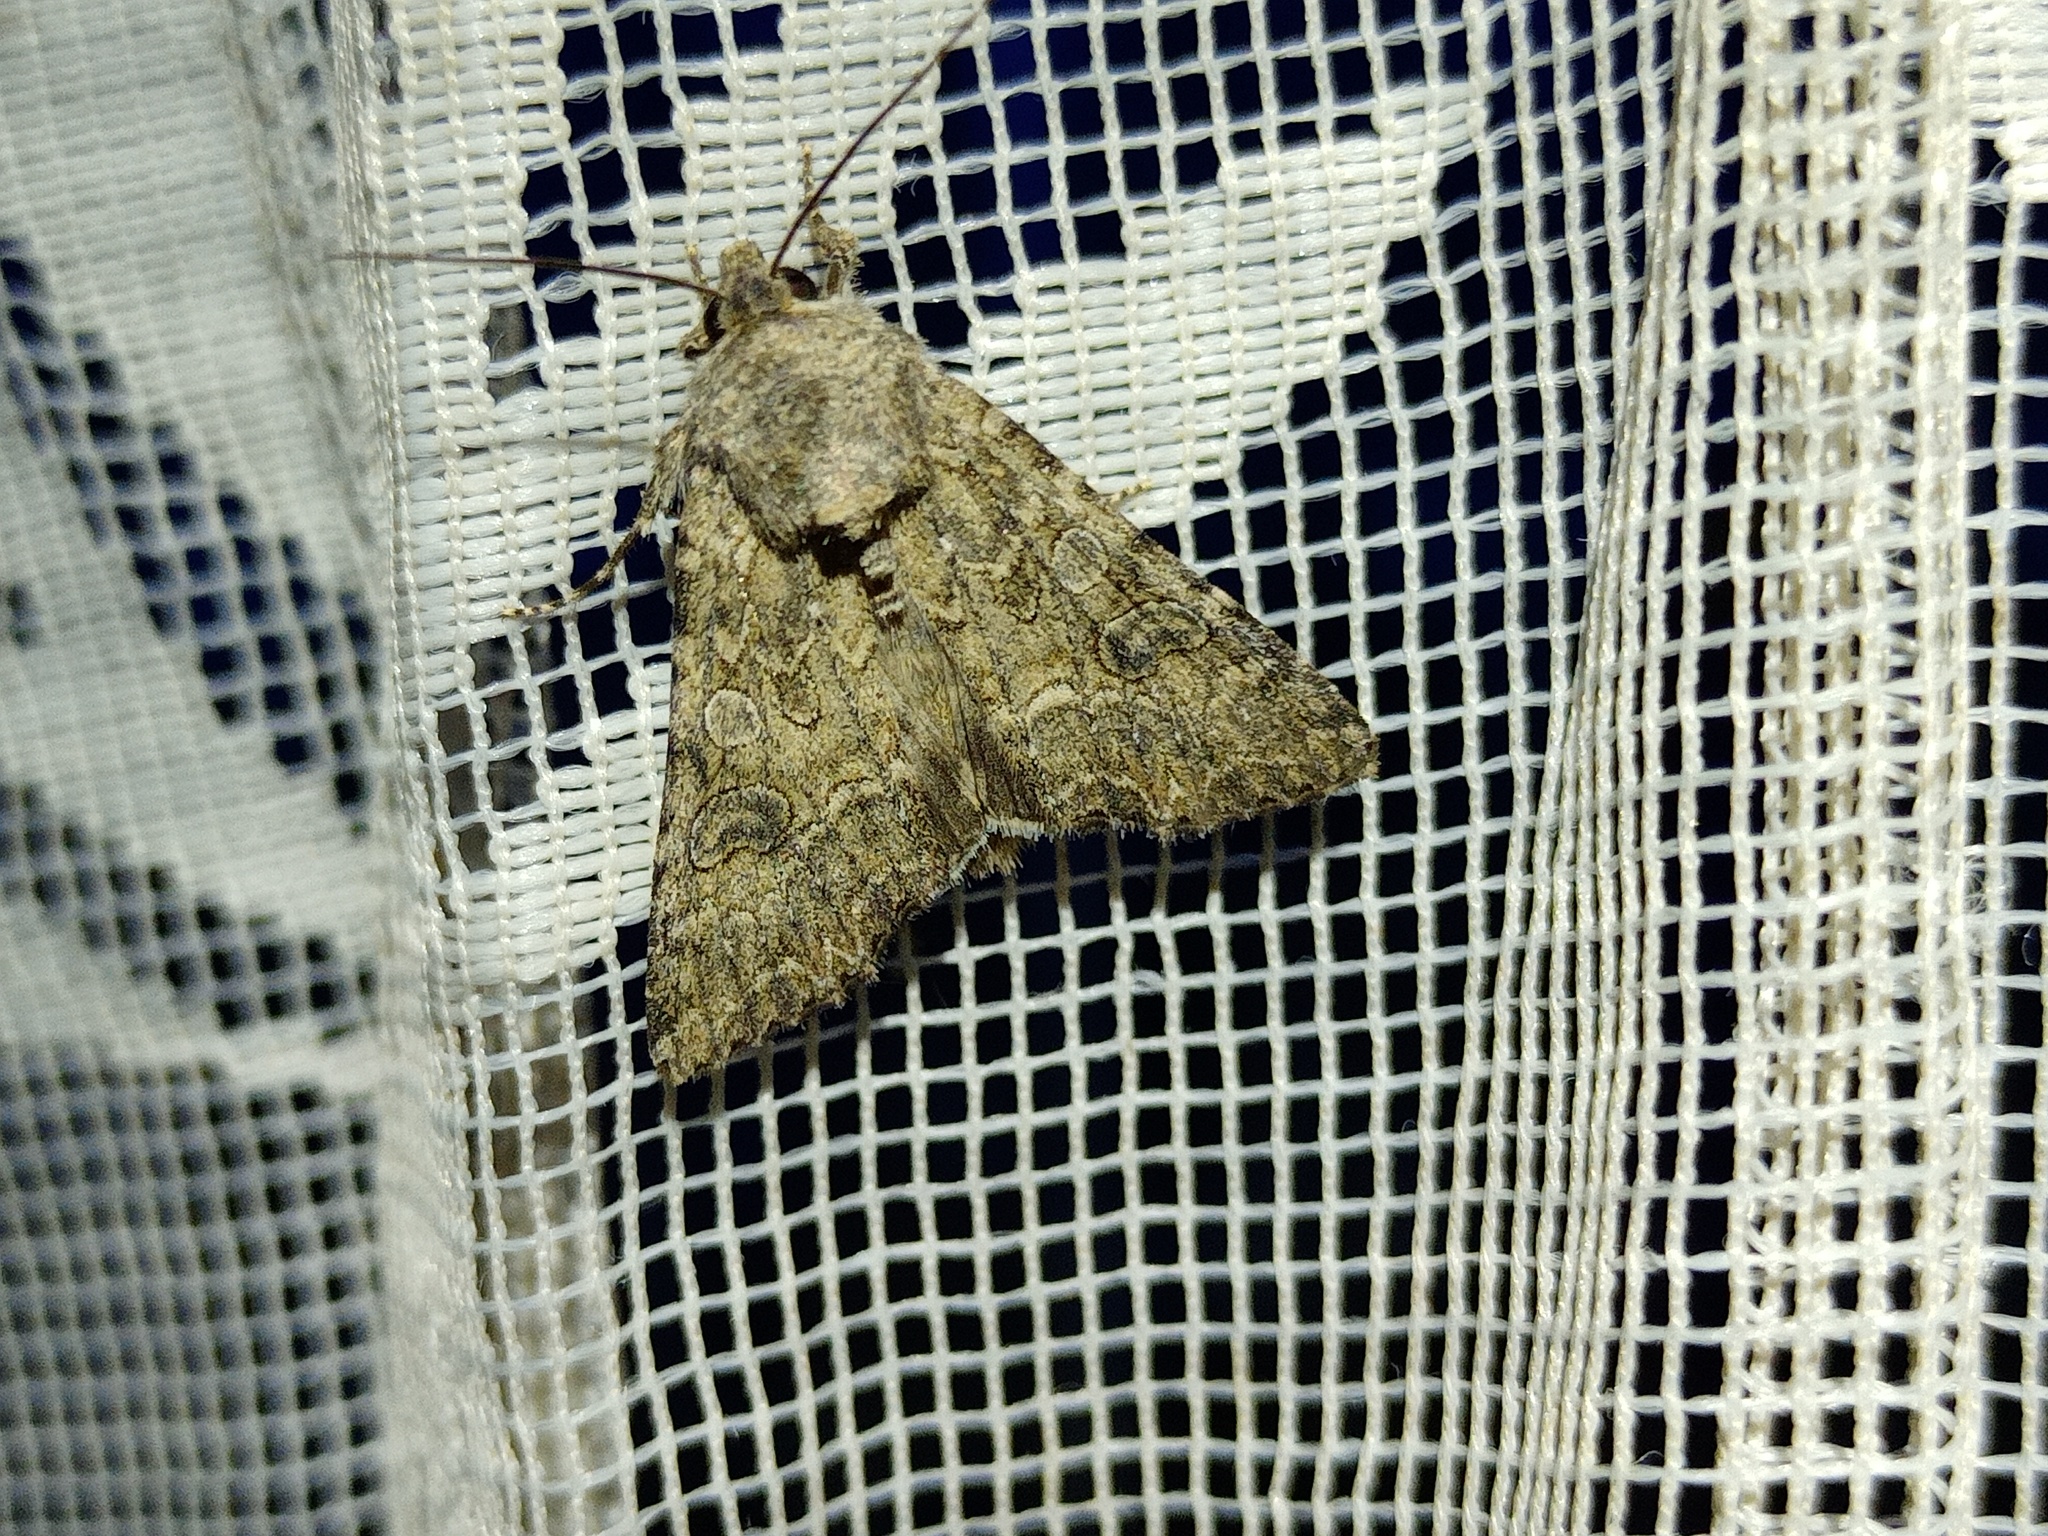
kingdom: Animalia
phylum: Arthropoda
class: Insecta
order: Lepidoptera
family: Noctuidae
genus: Anarta
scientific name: Anarta trifolii
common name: Clover cutworm moth
